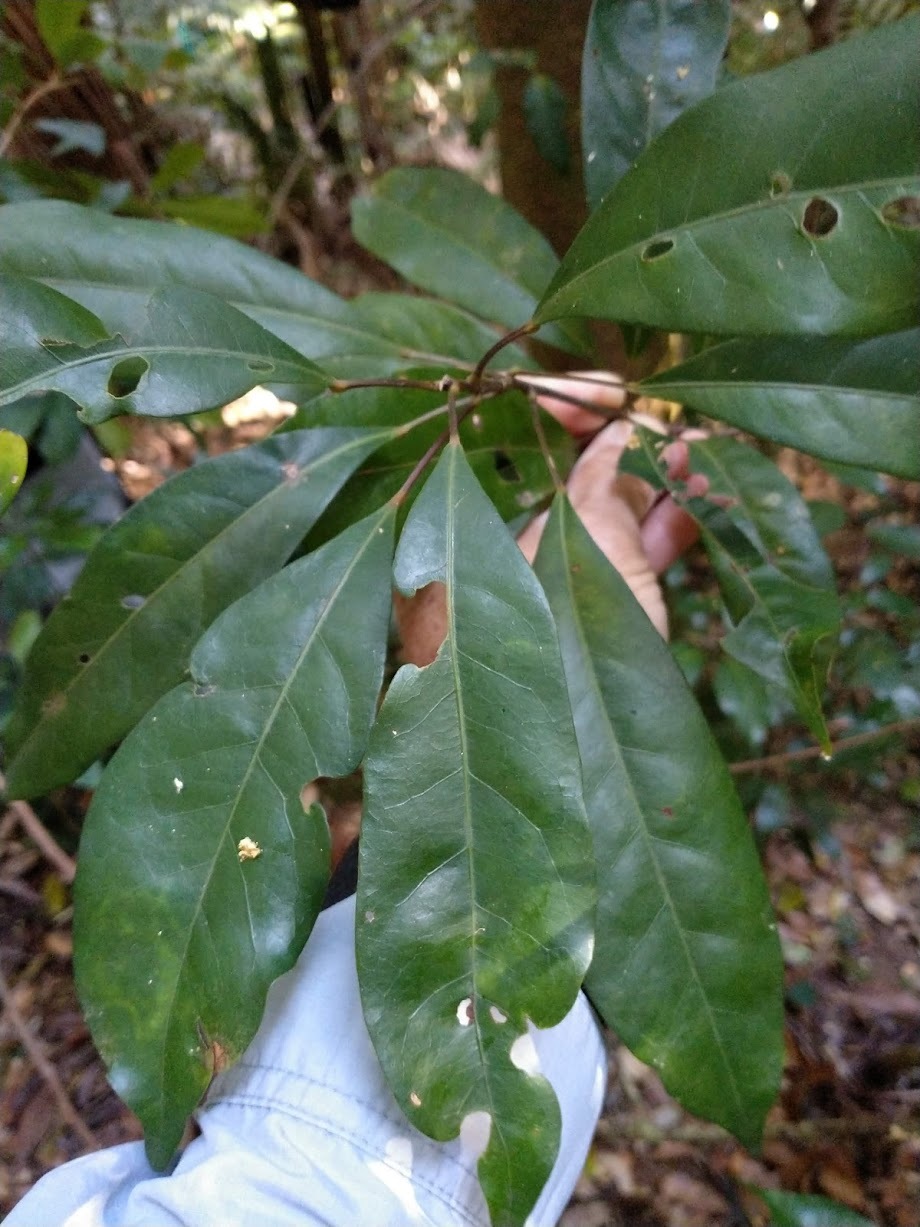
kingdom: Plantae
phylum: Tracheophyta
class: Magnoliopsida
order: Oxalidales
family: Elaeocarpaceae
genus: Elaeocarpus
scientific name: Elaeocarpus eumundi
